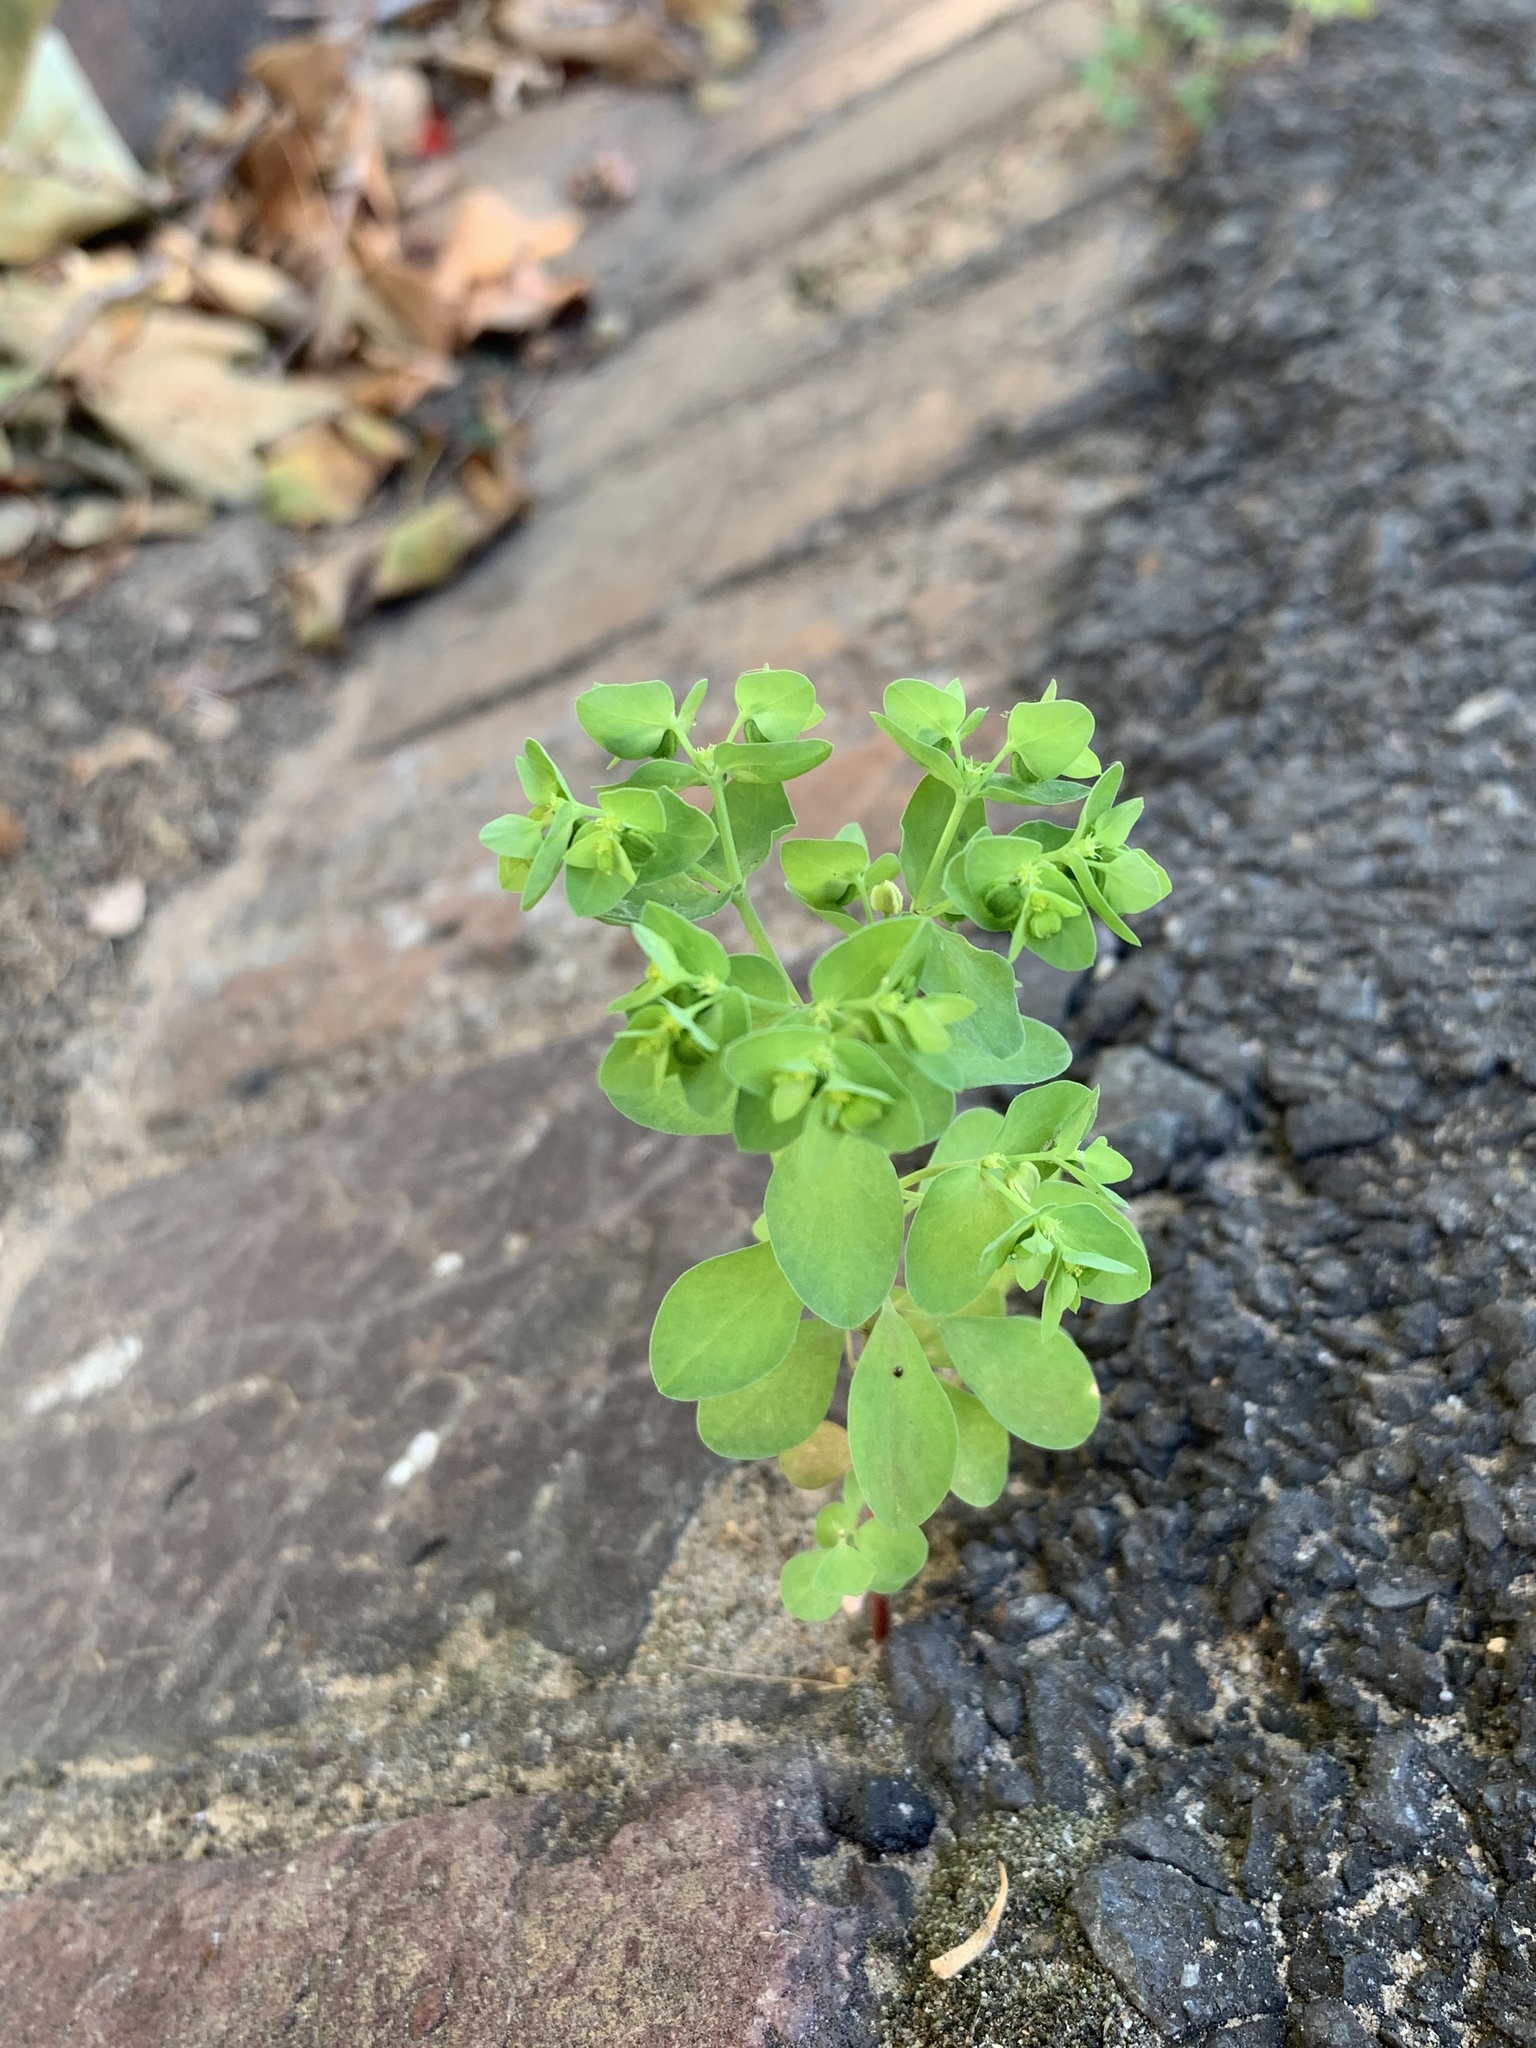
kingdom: Plantae
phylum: Tracheophyta
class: Magnoliopsida
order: Malpighiales
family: Euphorbiaceae
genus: Euphorbia
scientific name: Euphorbia peplus
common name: Petty spurge
